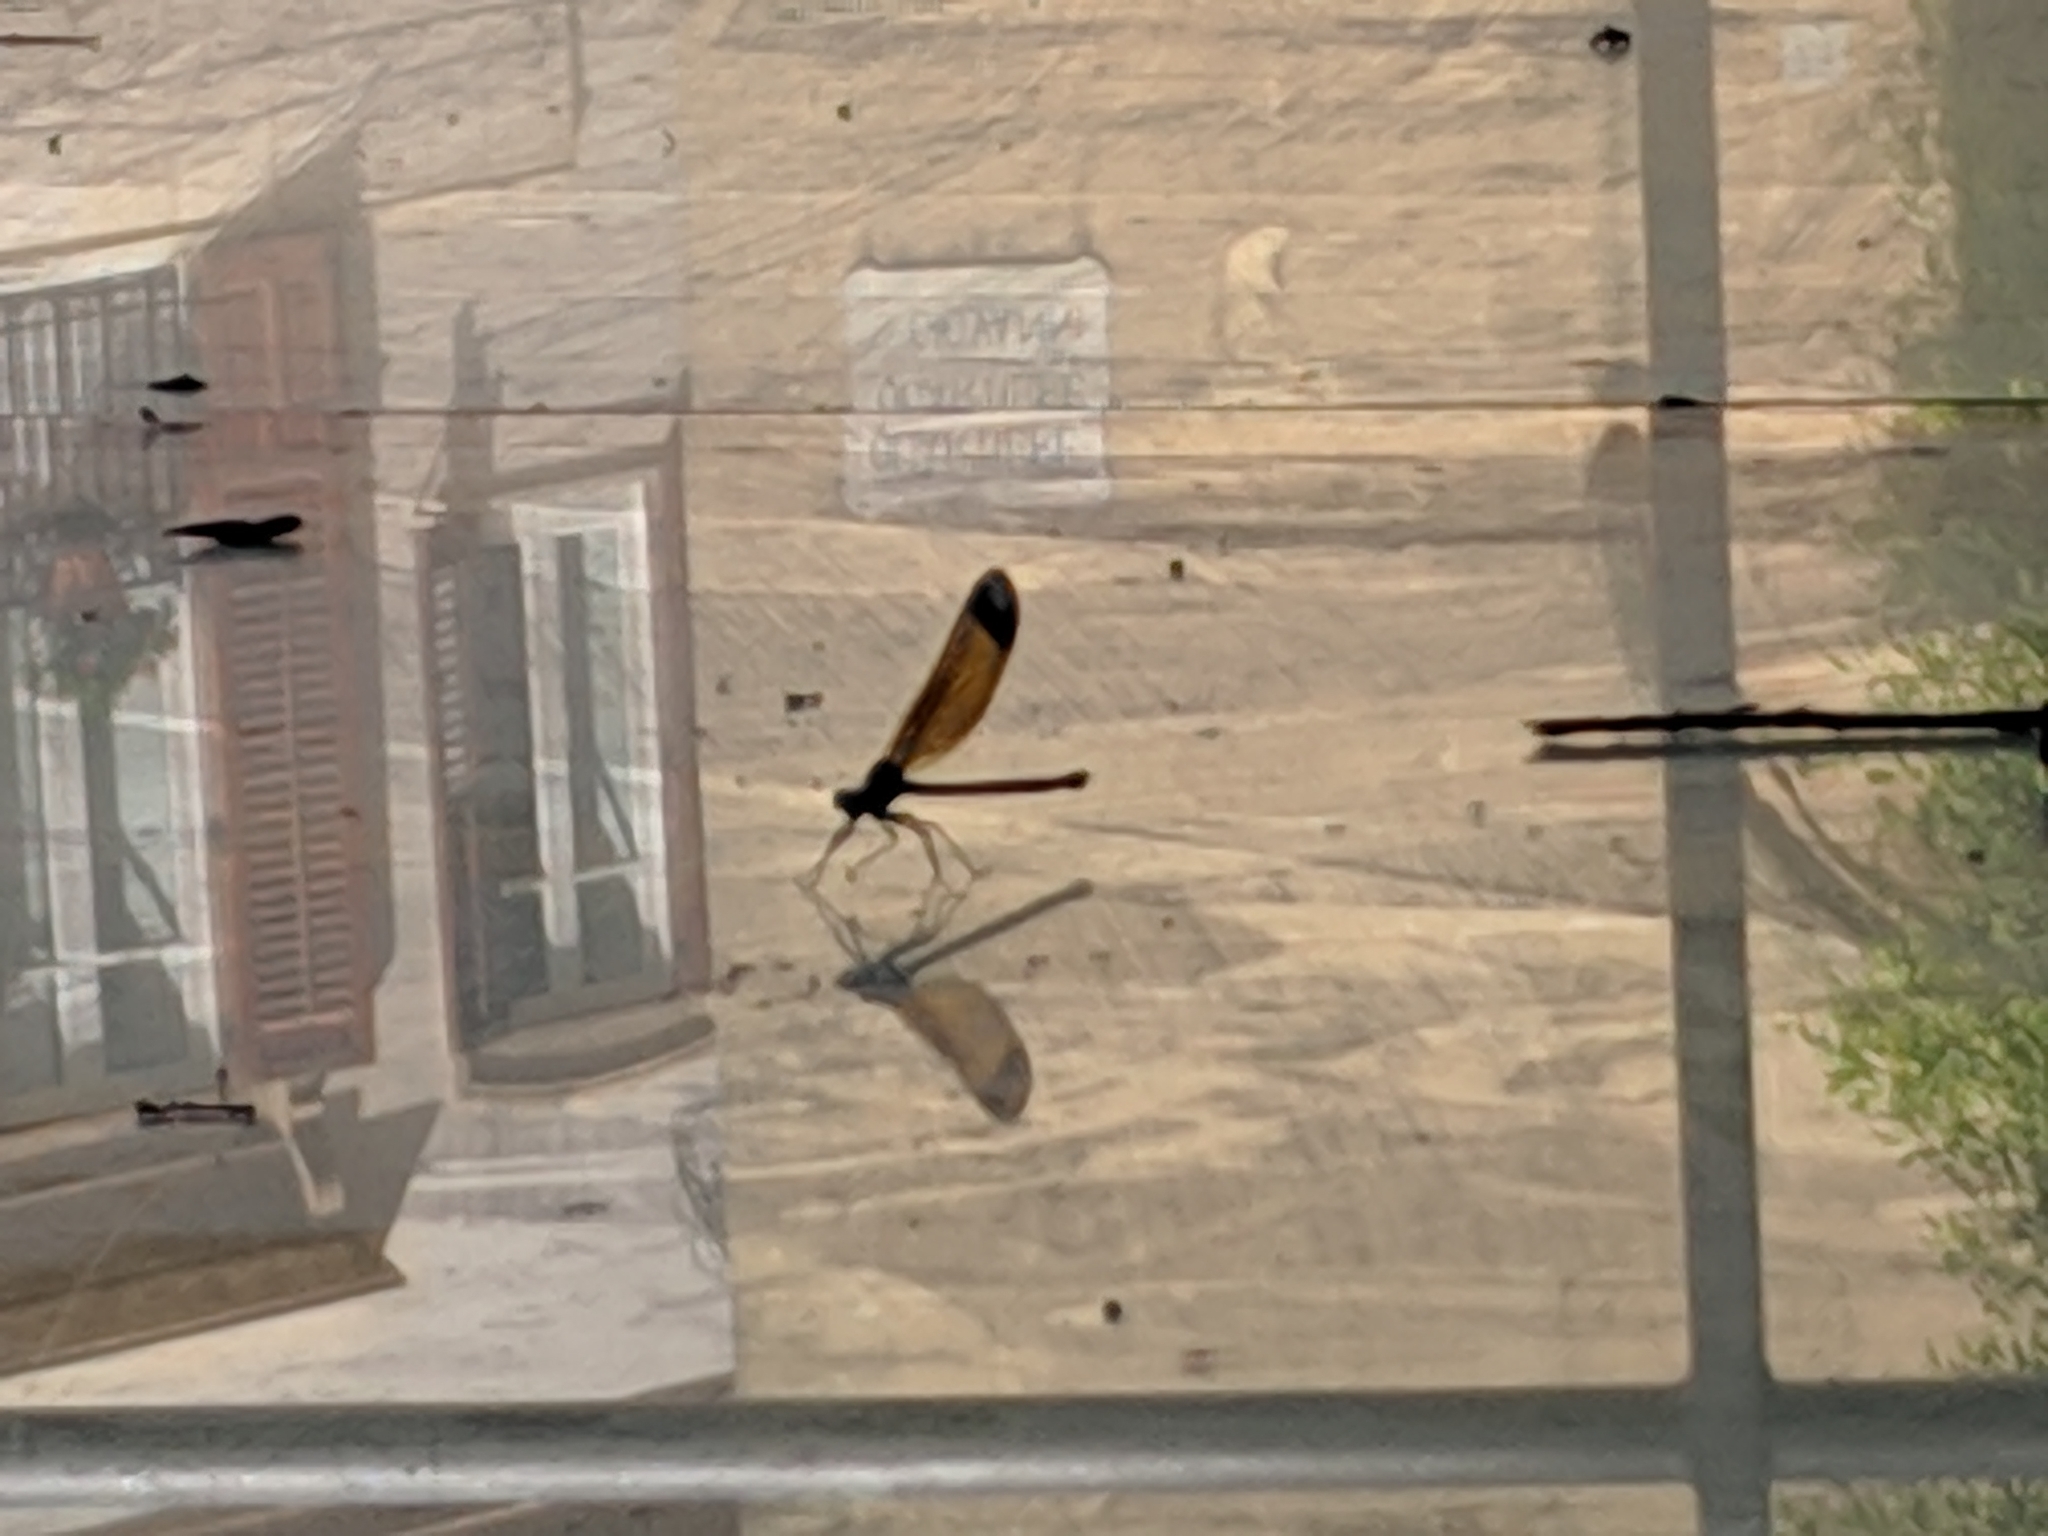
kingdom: Animalia
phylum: Arthropoda
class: Insecta
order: Odonata
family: Calopterygidae
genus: Calopteryx
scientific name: Calopteryx haemorrhoidalis
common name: Copper demoiselle
